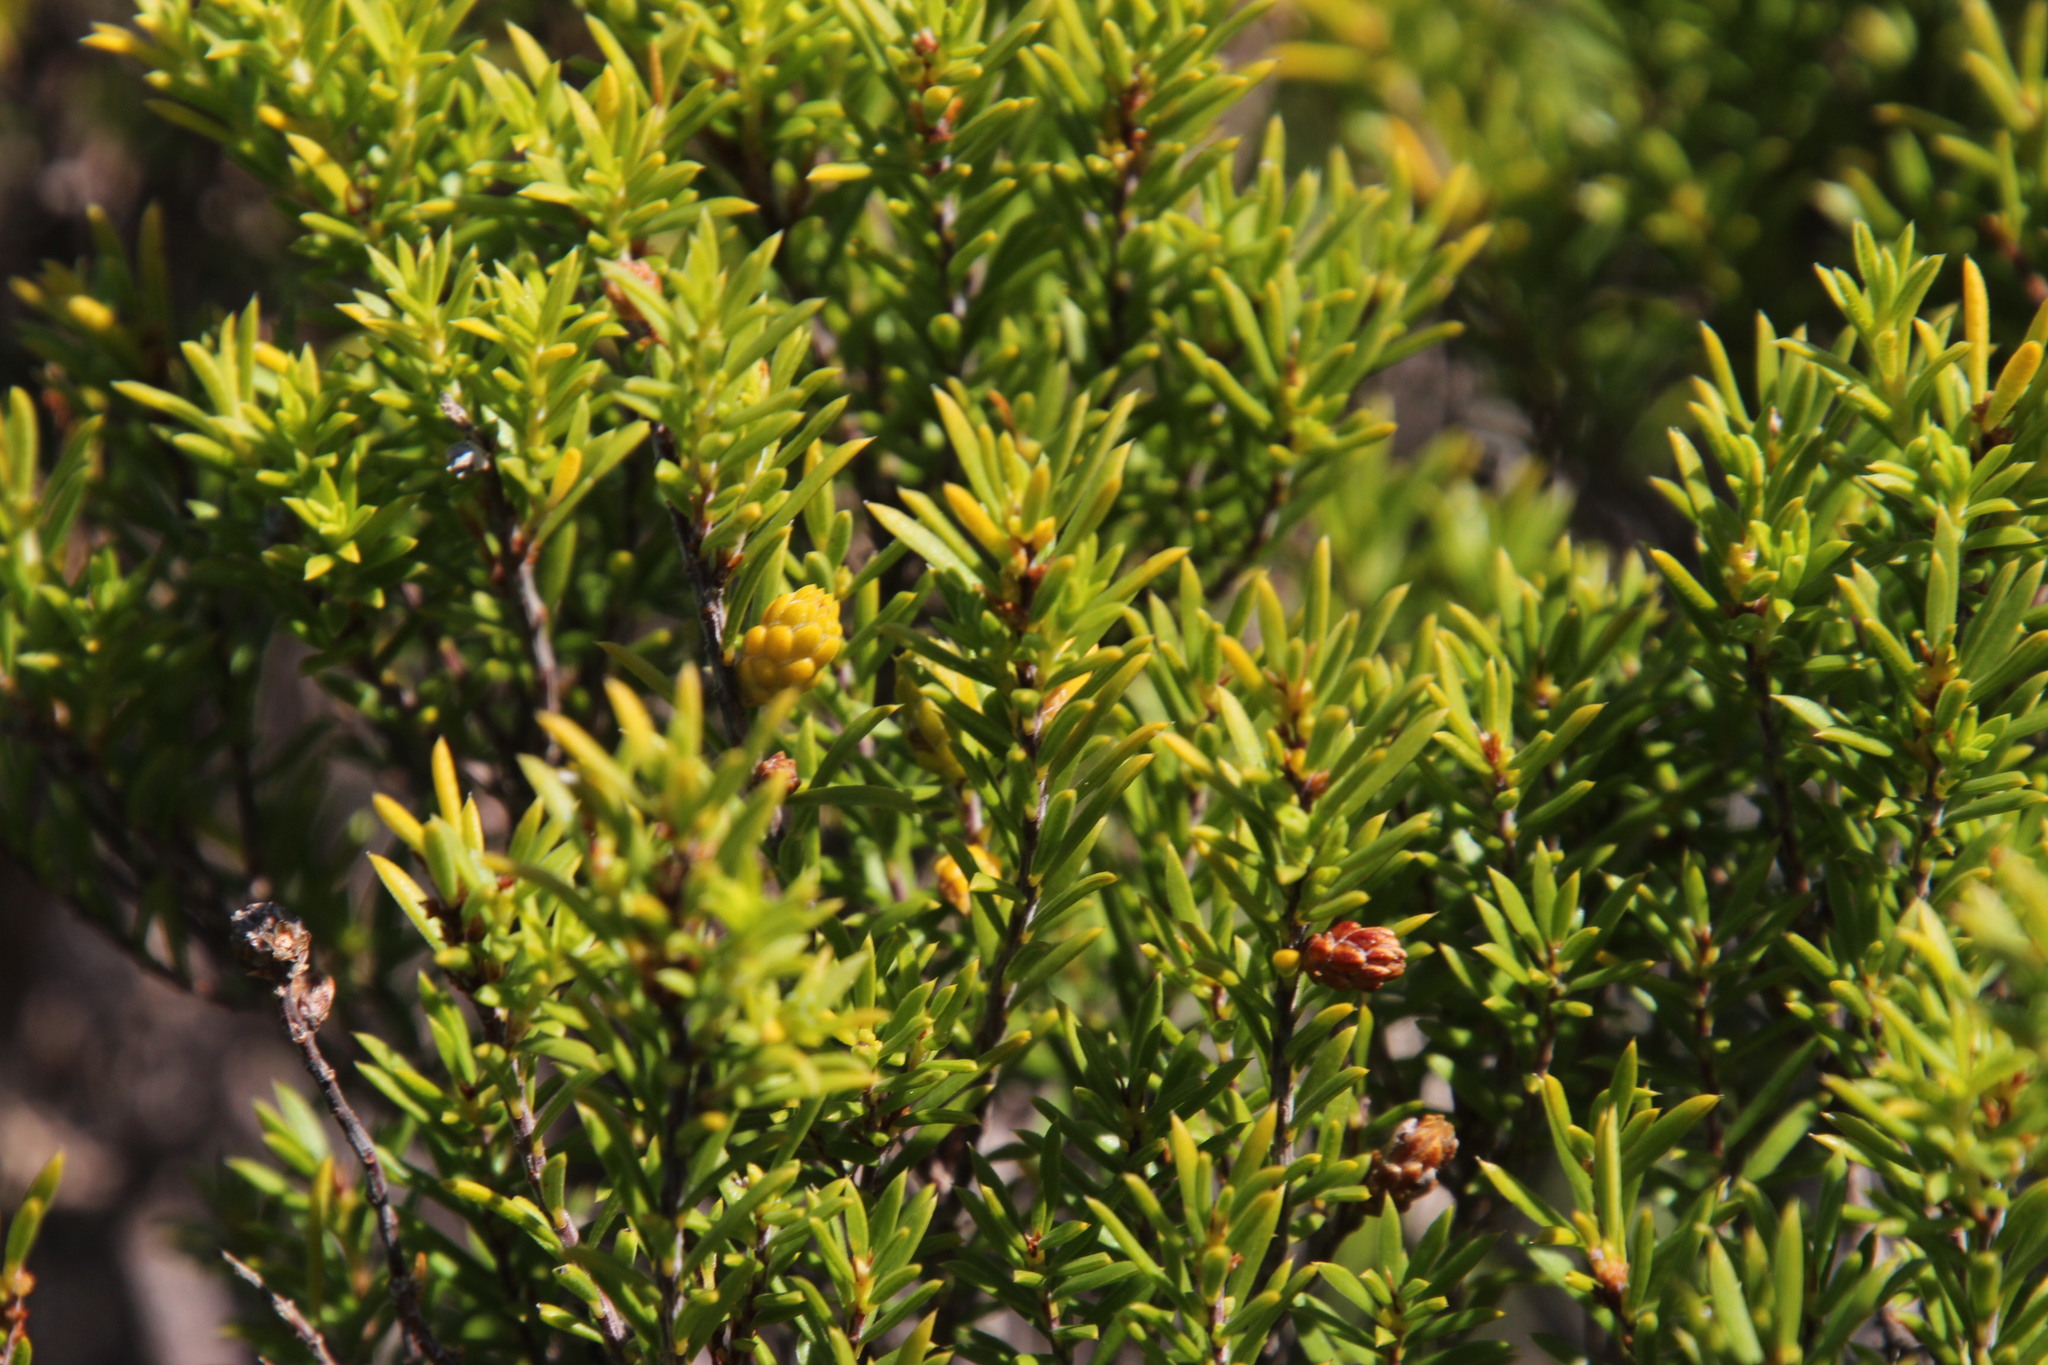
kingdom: Plantae
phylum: Tracheophyta
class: Magnoliopsida
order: Sapindales
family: Rutaceae
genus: Coleonema
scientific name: Coleonema album
